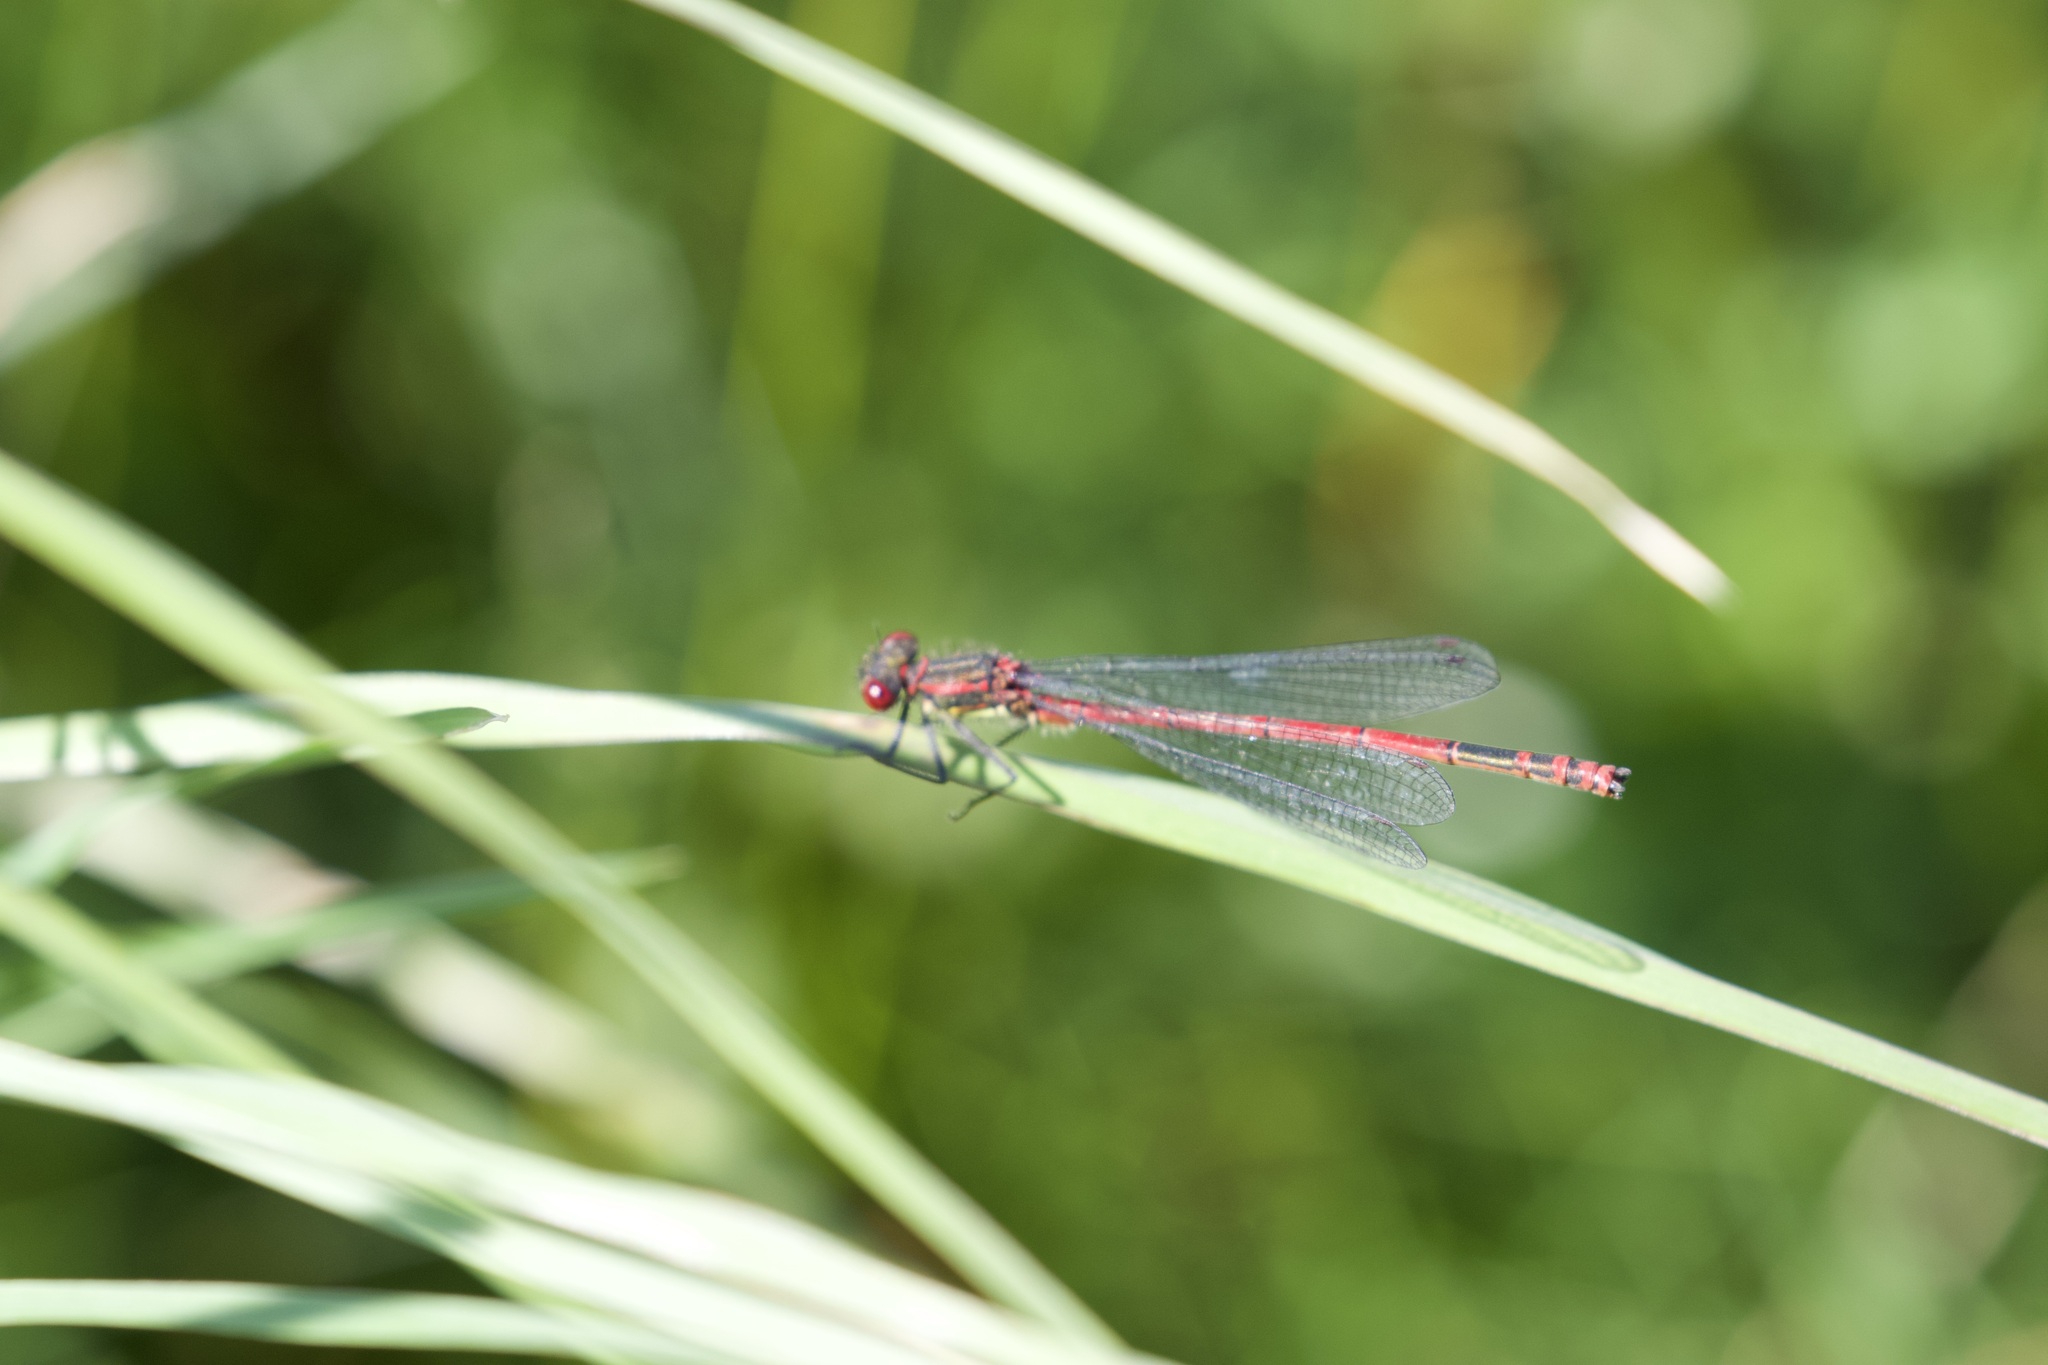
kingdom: Animalia
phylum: Arthropoda
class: Insecta
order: Odonata
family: Coenagrionidae
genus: Pyrrhosoma
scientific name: Pyrrhosoma nymphula
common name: Large red damsel
